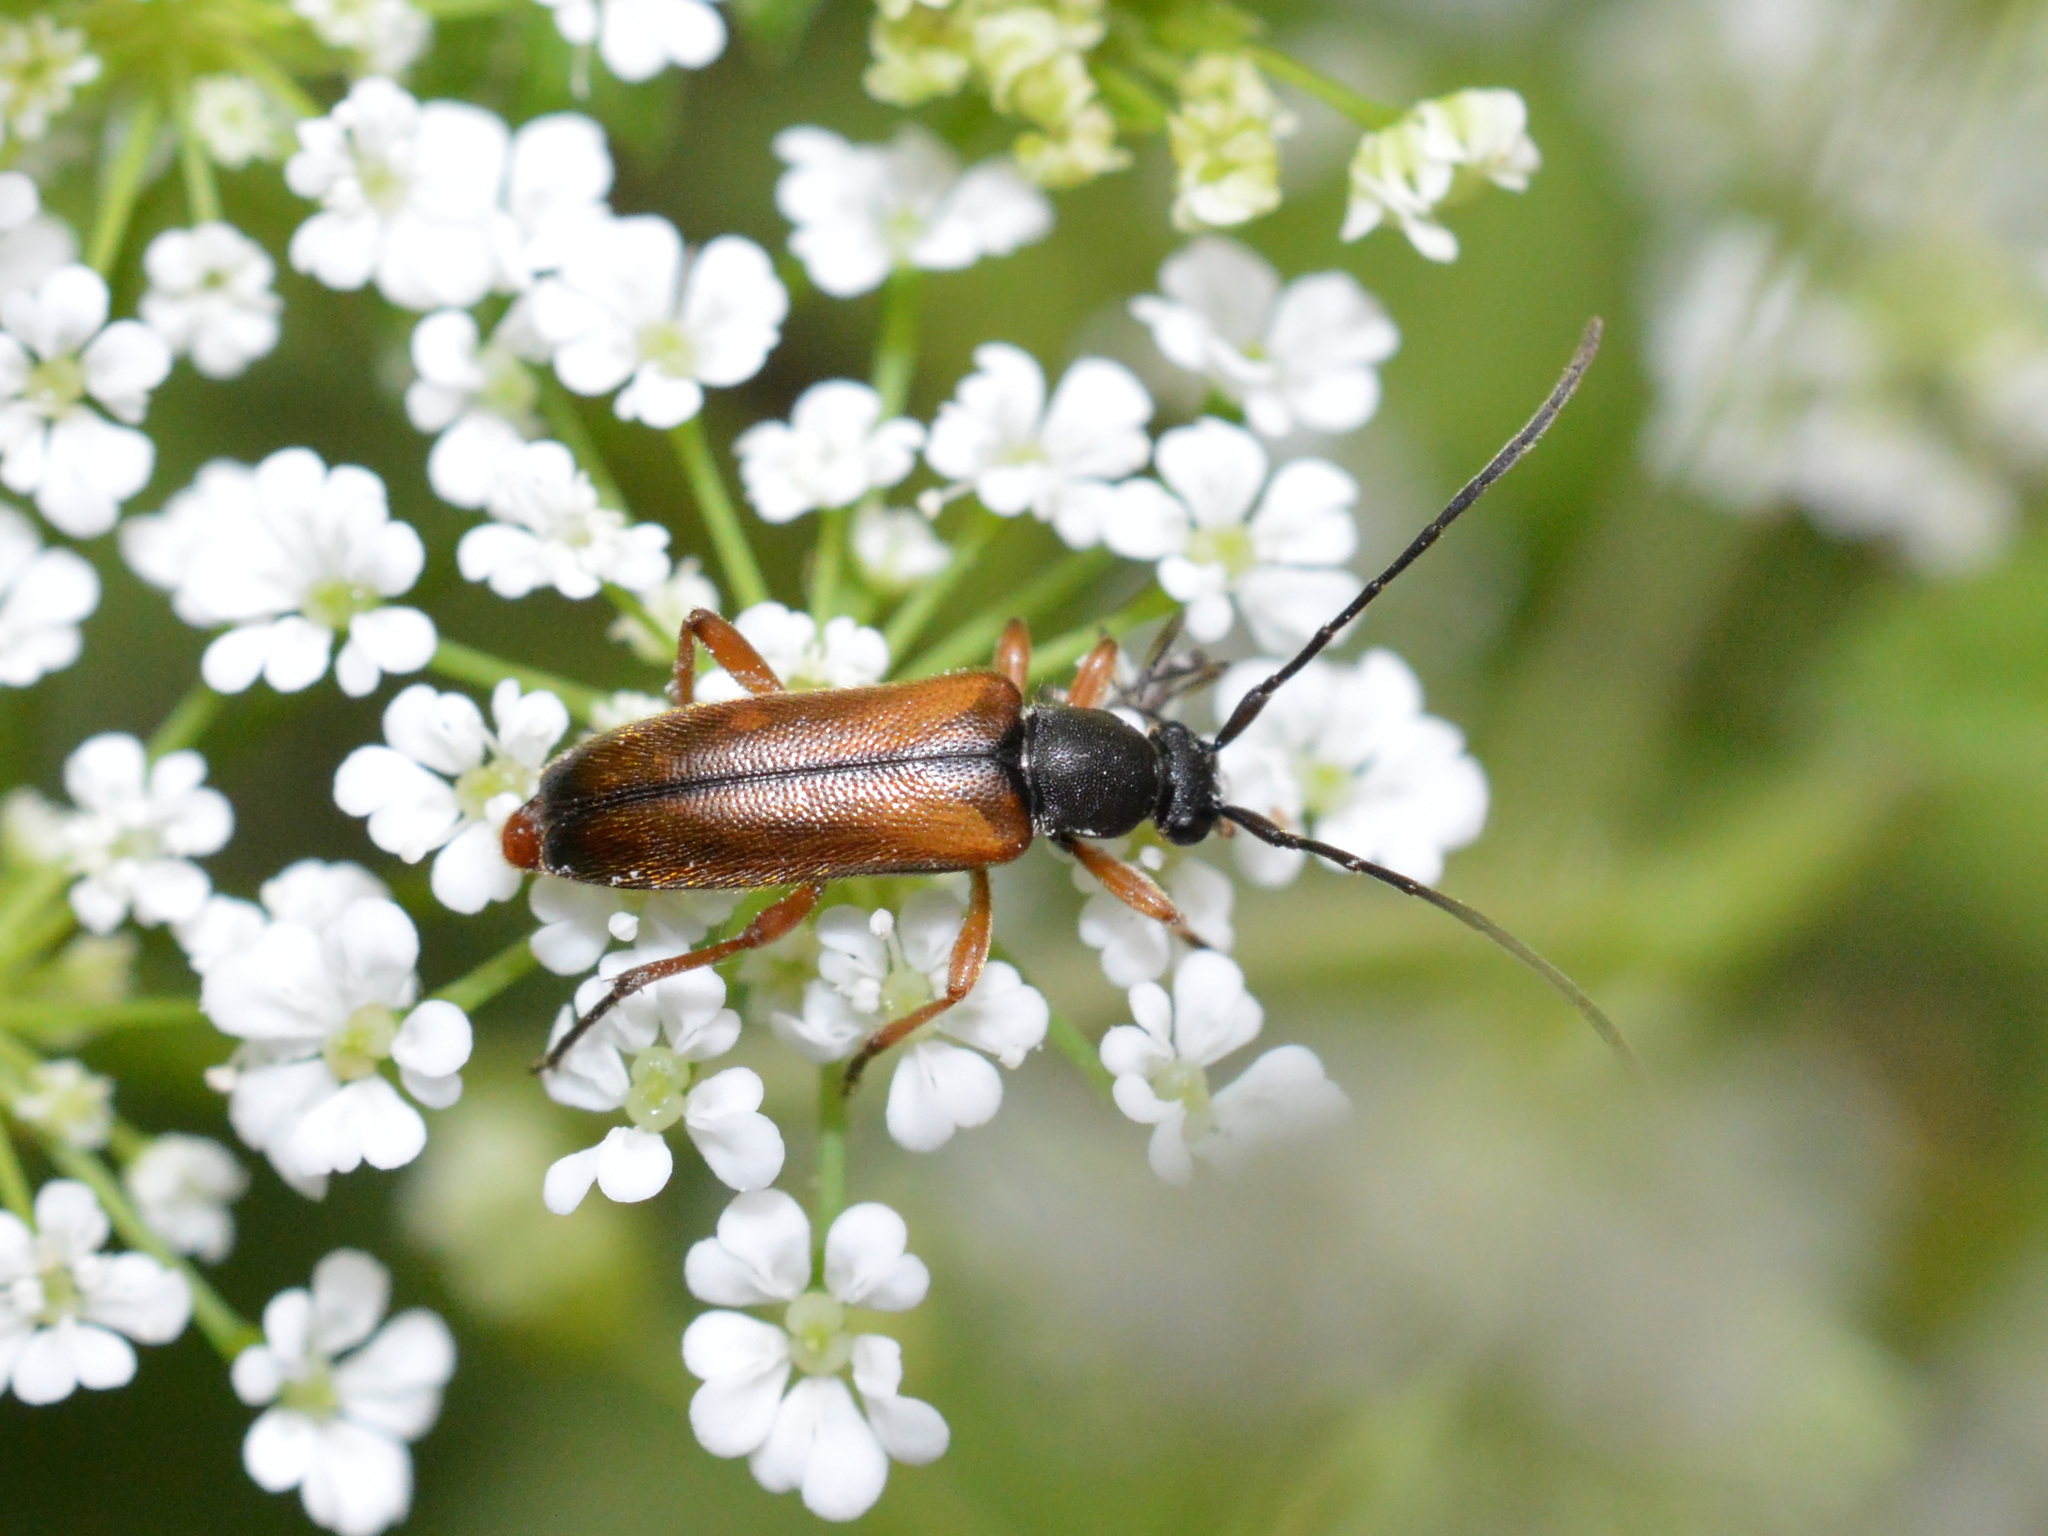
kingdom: Animalia
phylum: Arthropoda
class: Insecta
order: Coleoptera
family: Cerambycidae
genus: Alosterna
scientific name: Alosterna tabacicolor
